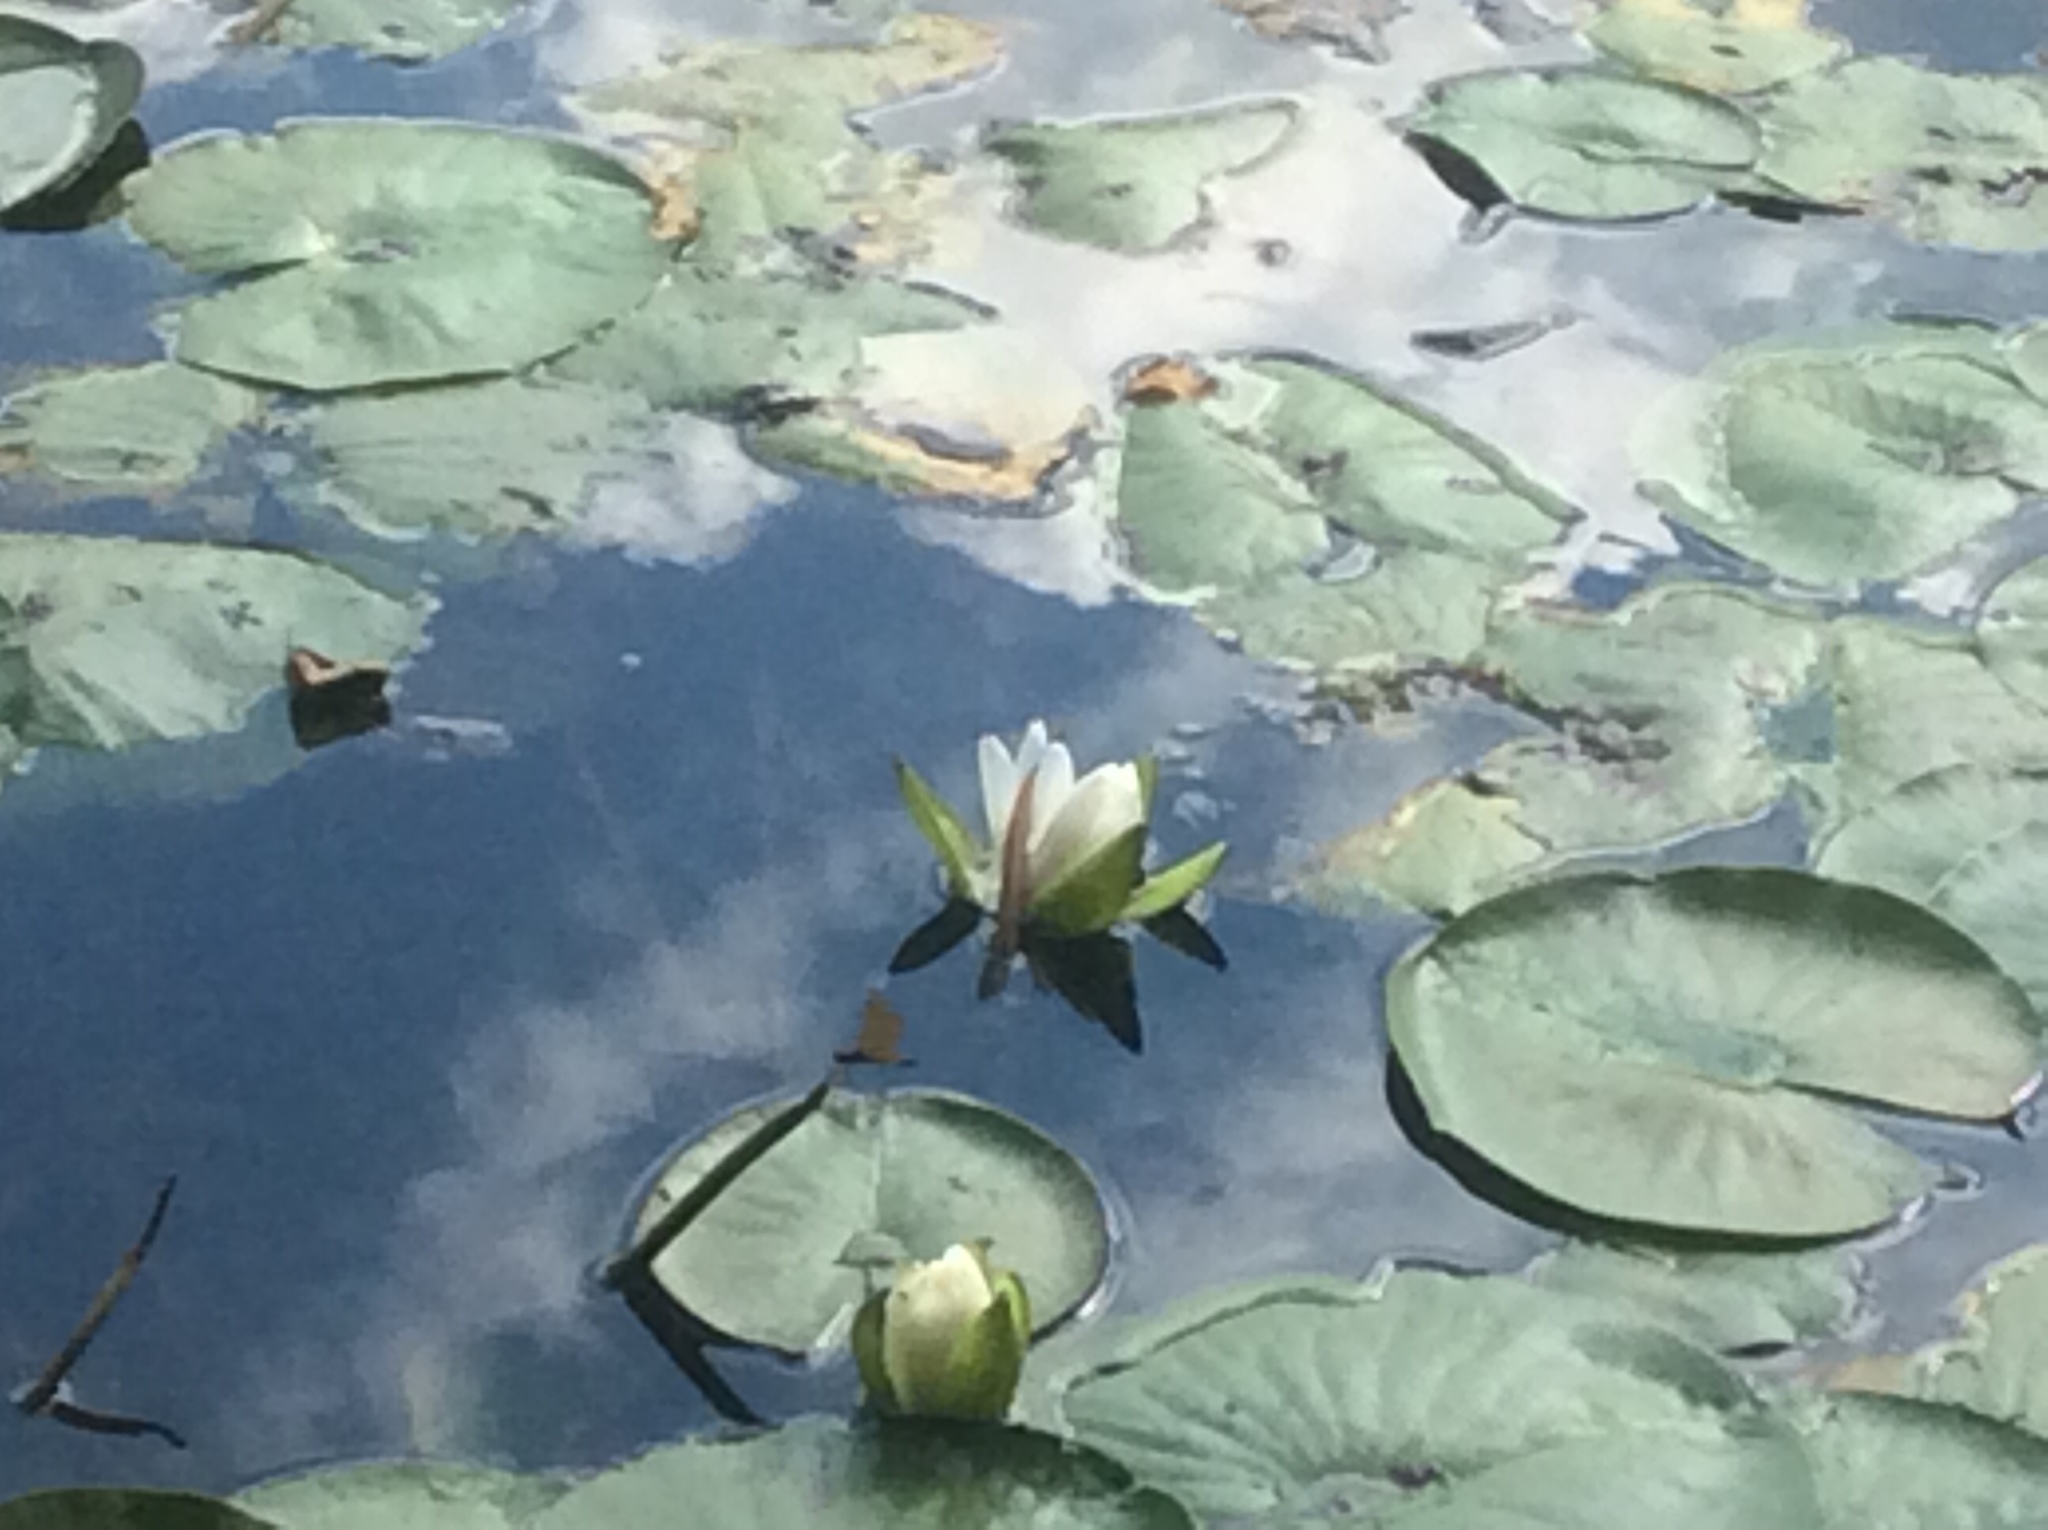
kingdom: Plantae
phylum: Tracheophyta
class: Magnoliopsida
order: Nymphaeales
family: Nymphaeaceae
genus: Nymphaea
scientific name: Nymphaea odorata
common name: Fragrant water-lily
